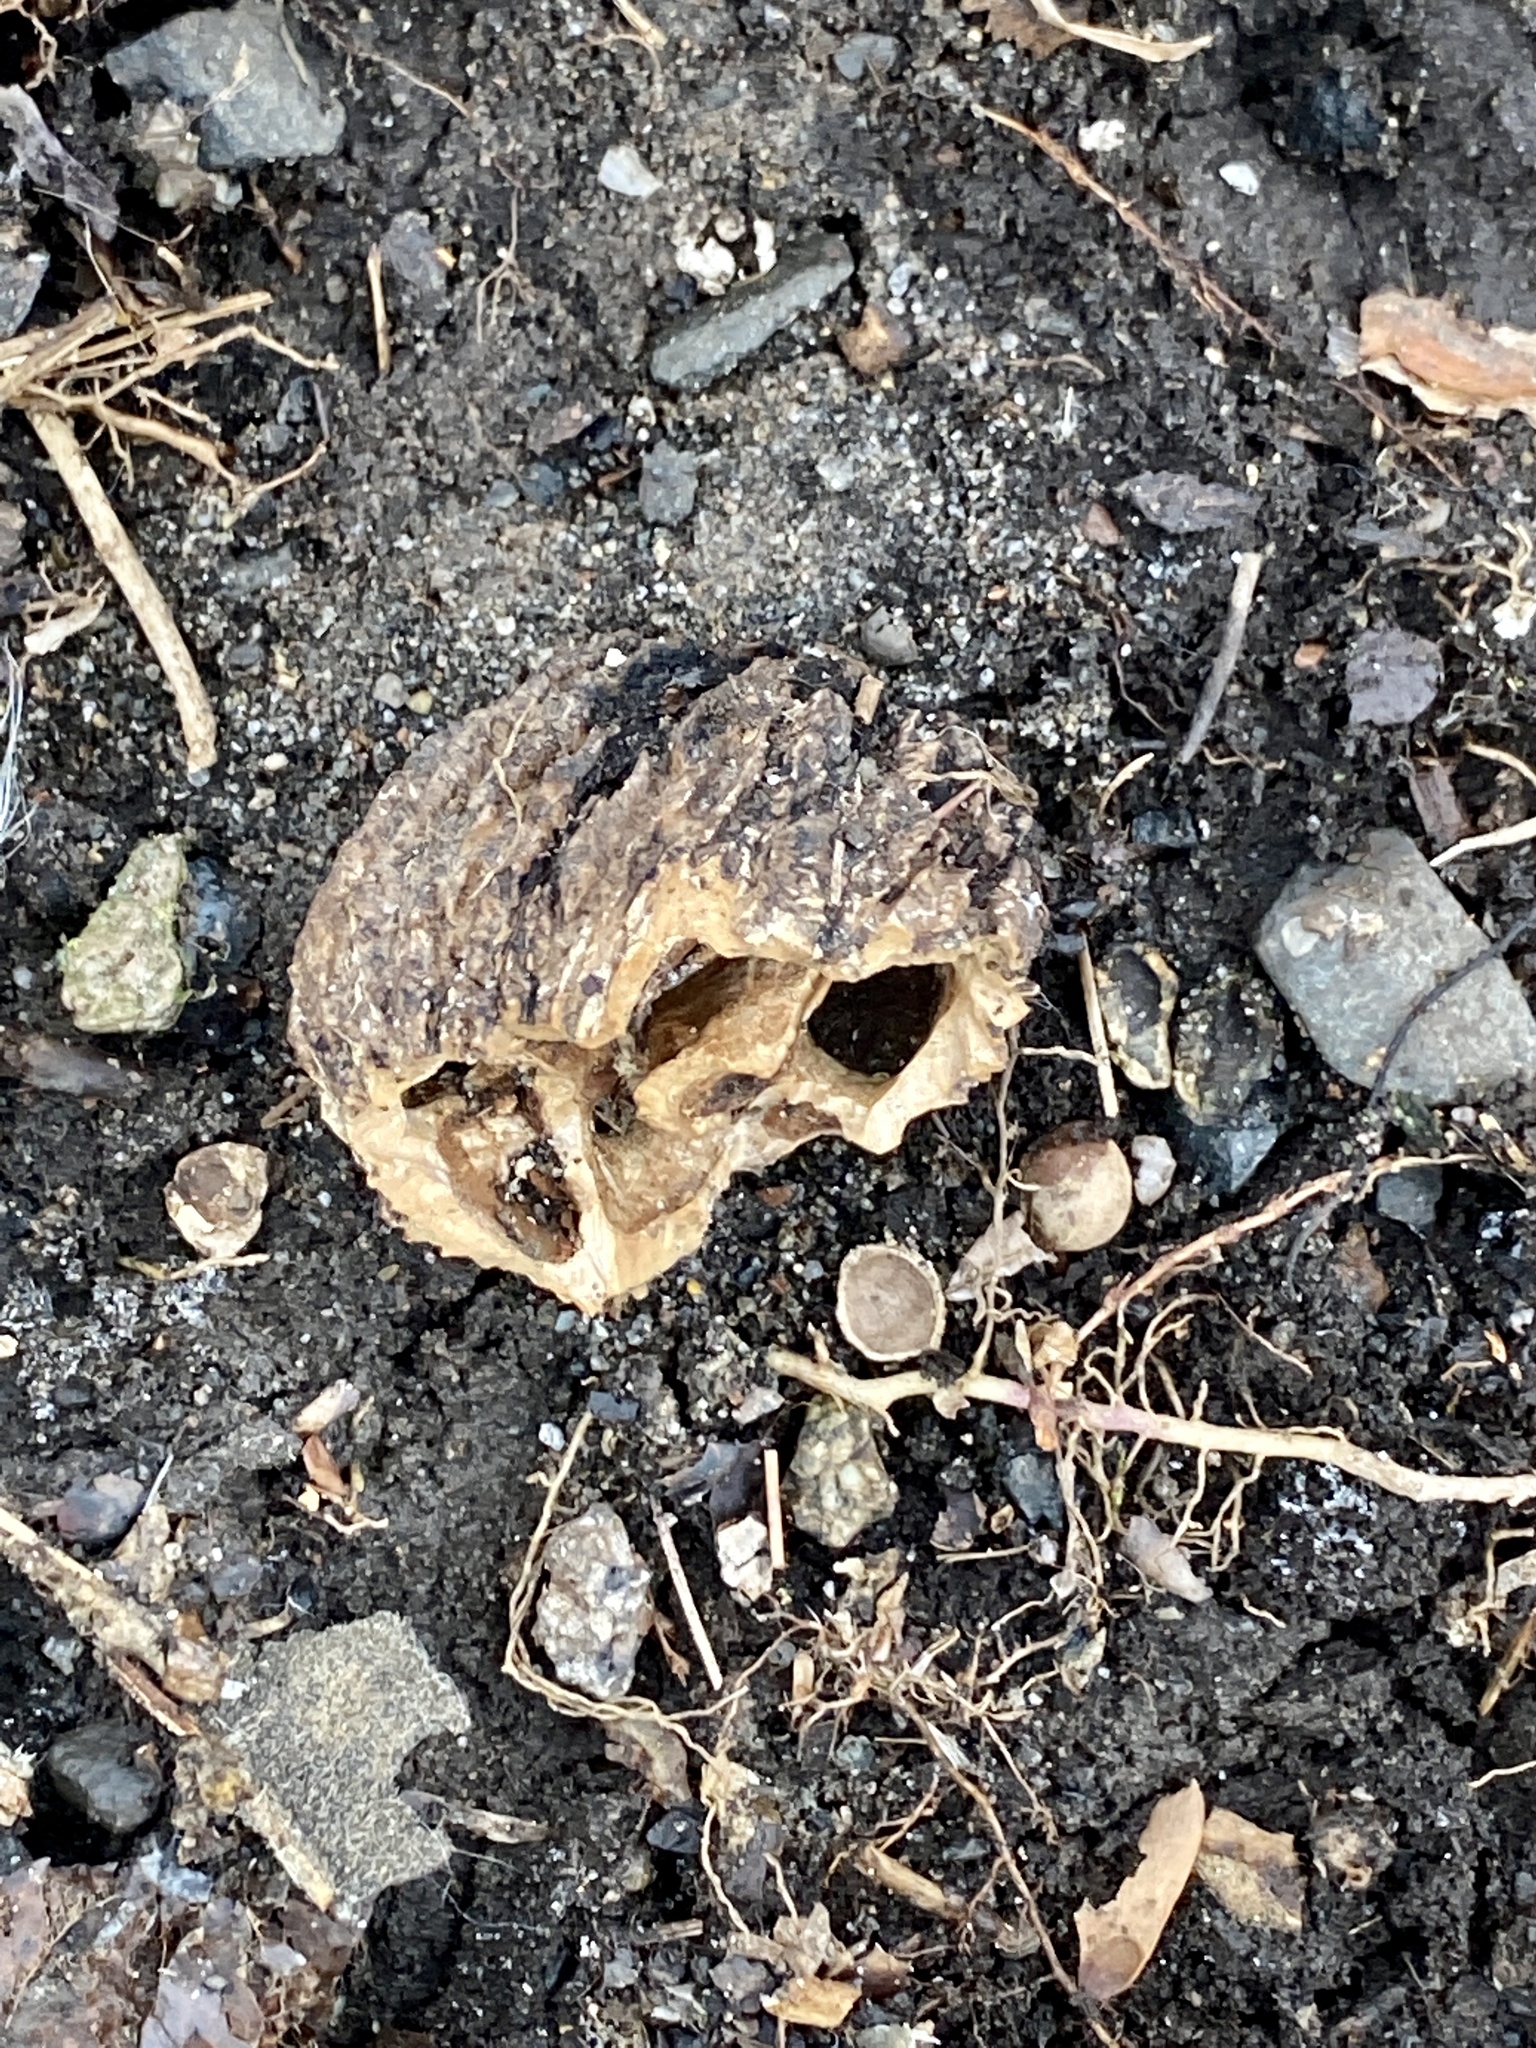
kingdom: Plantae
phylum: Tracheophyta
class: Magnoliopsida
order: Fagales
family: Juglandaceae
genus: Juglans
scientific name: Juglans nigra
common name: Black walnut
